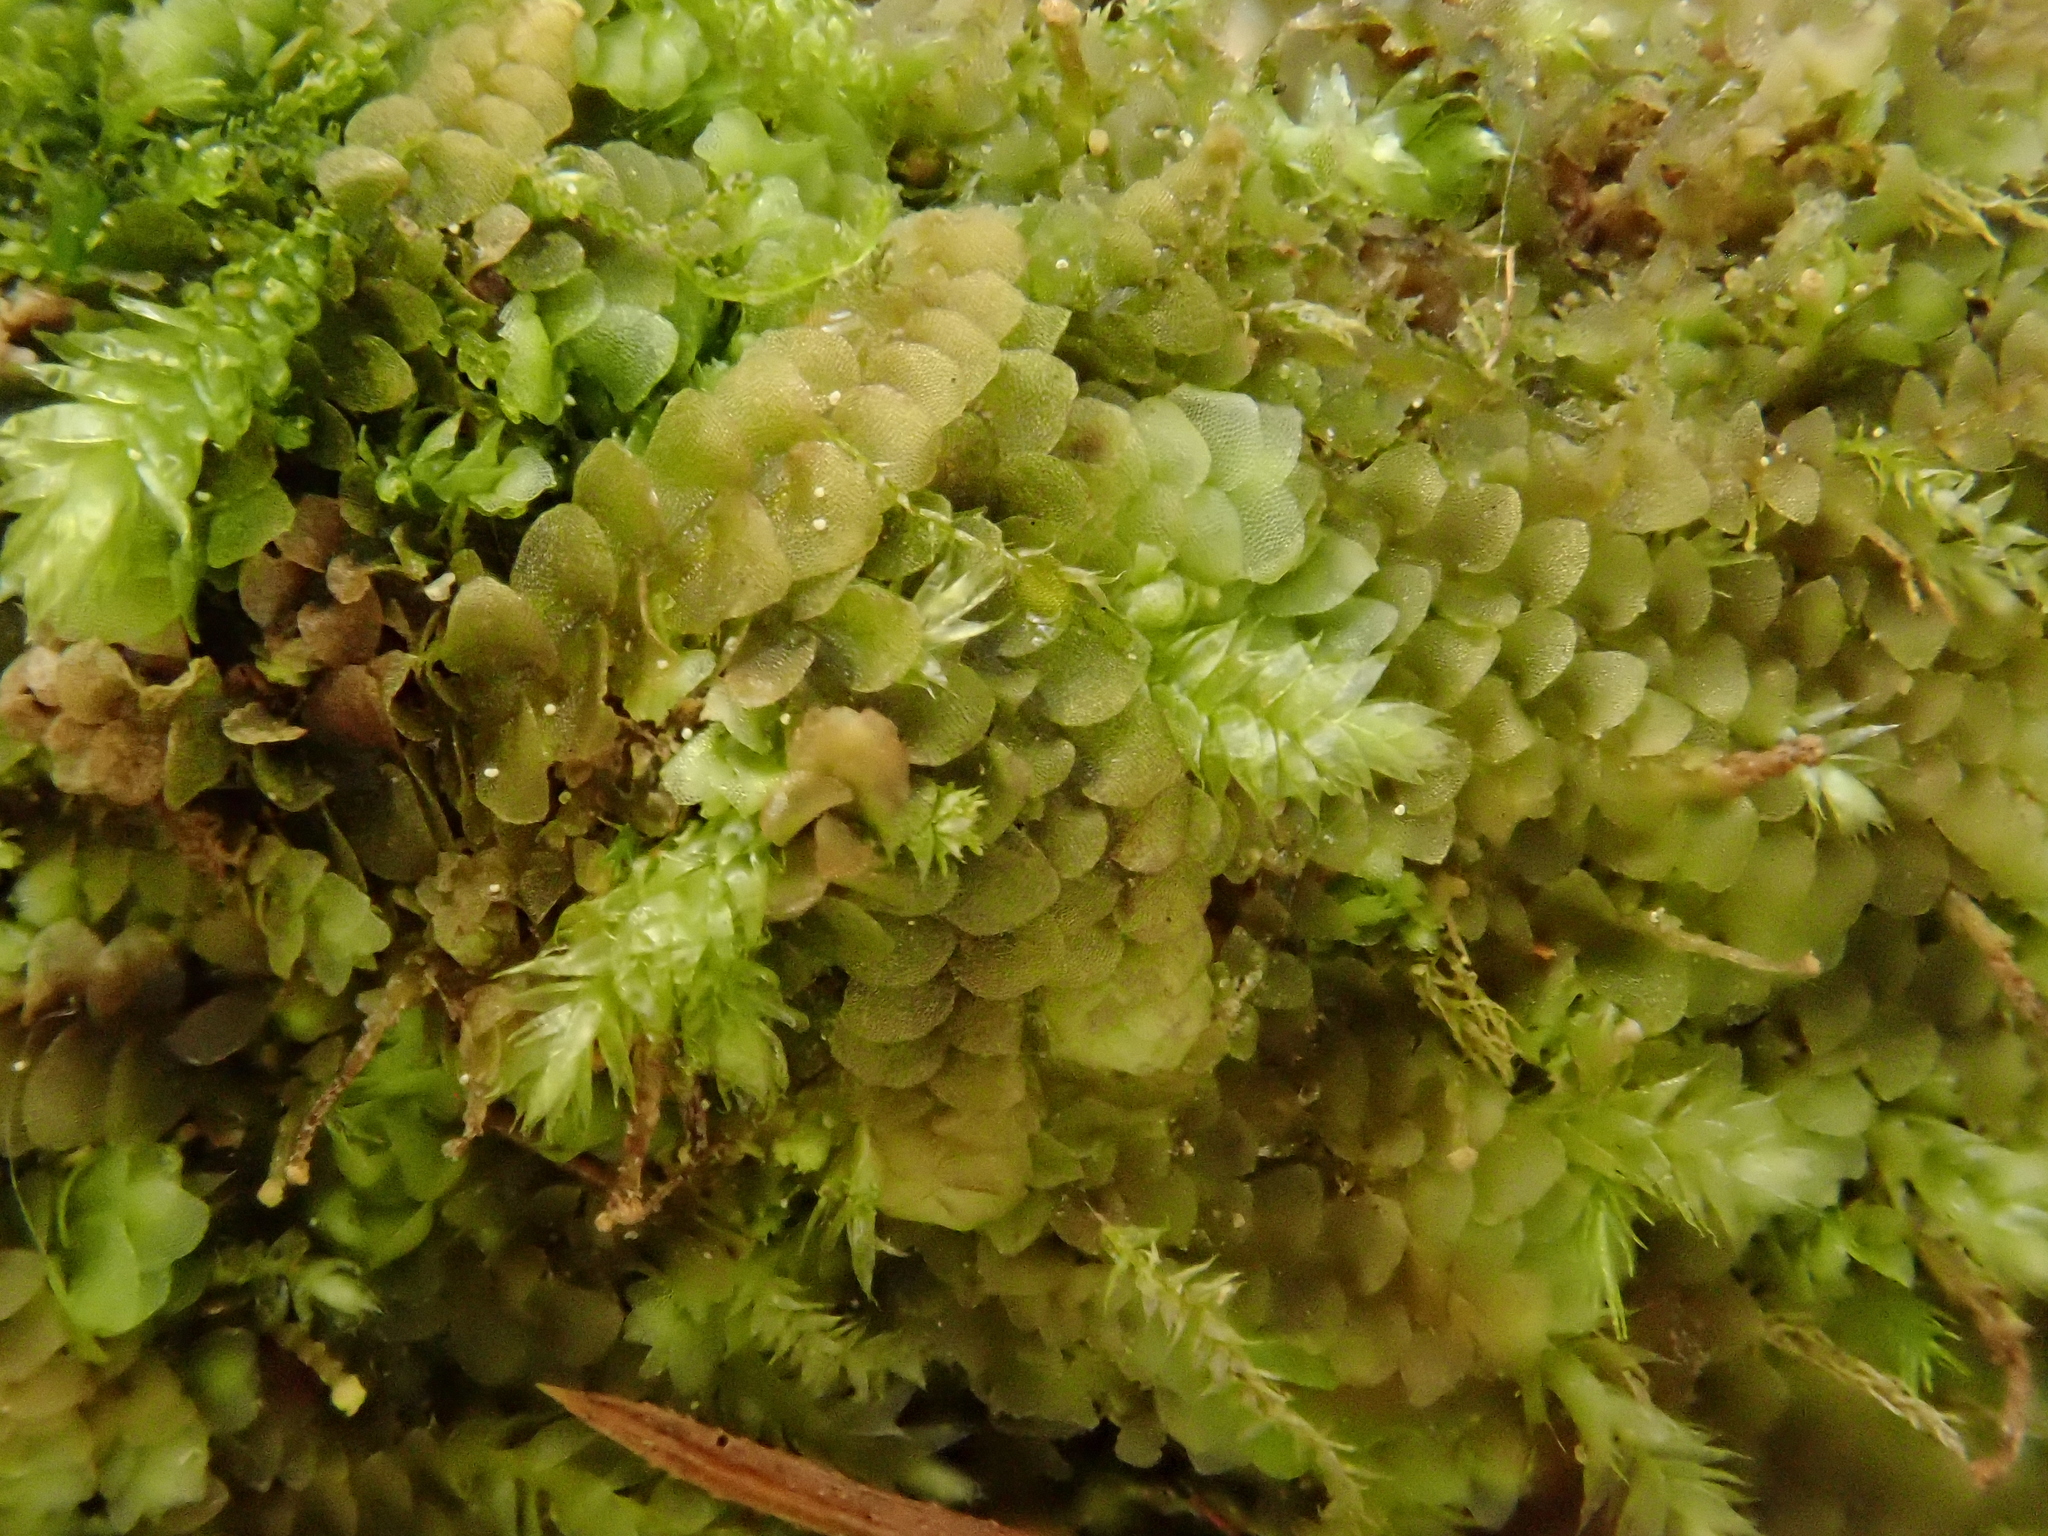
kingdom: Plantae
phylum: Marchantiophyta
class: Jungermanniopsida
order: Jungermanniales
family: Calypogeiaceae
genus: Calypogeia
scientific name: Calypogeia muelleriana
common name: Mueller s pouchwort
